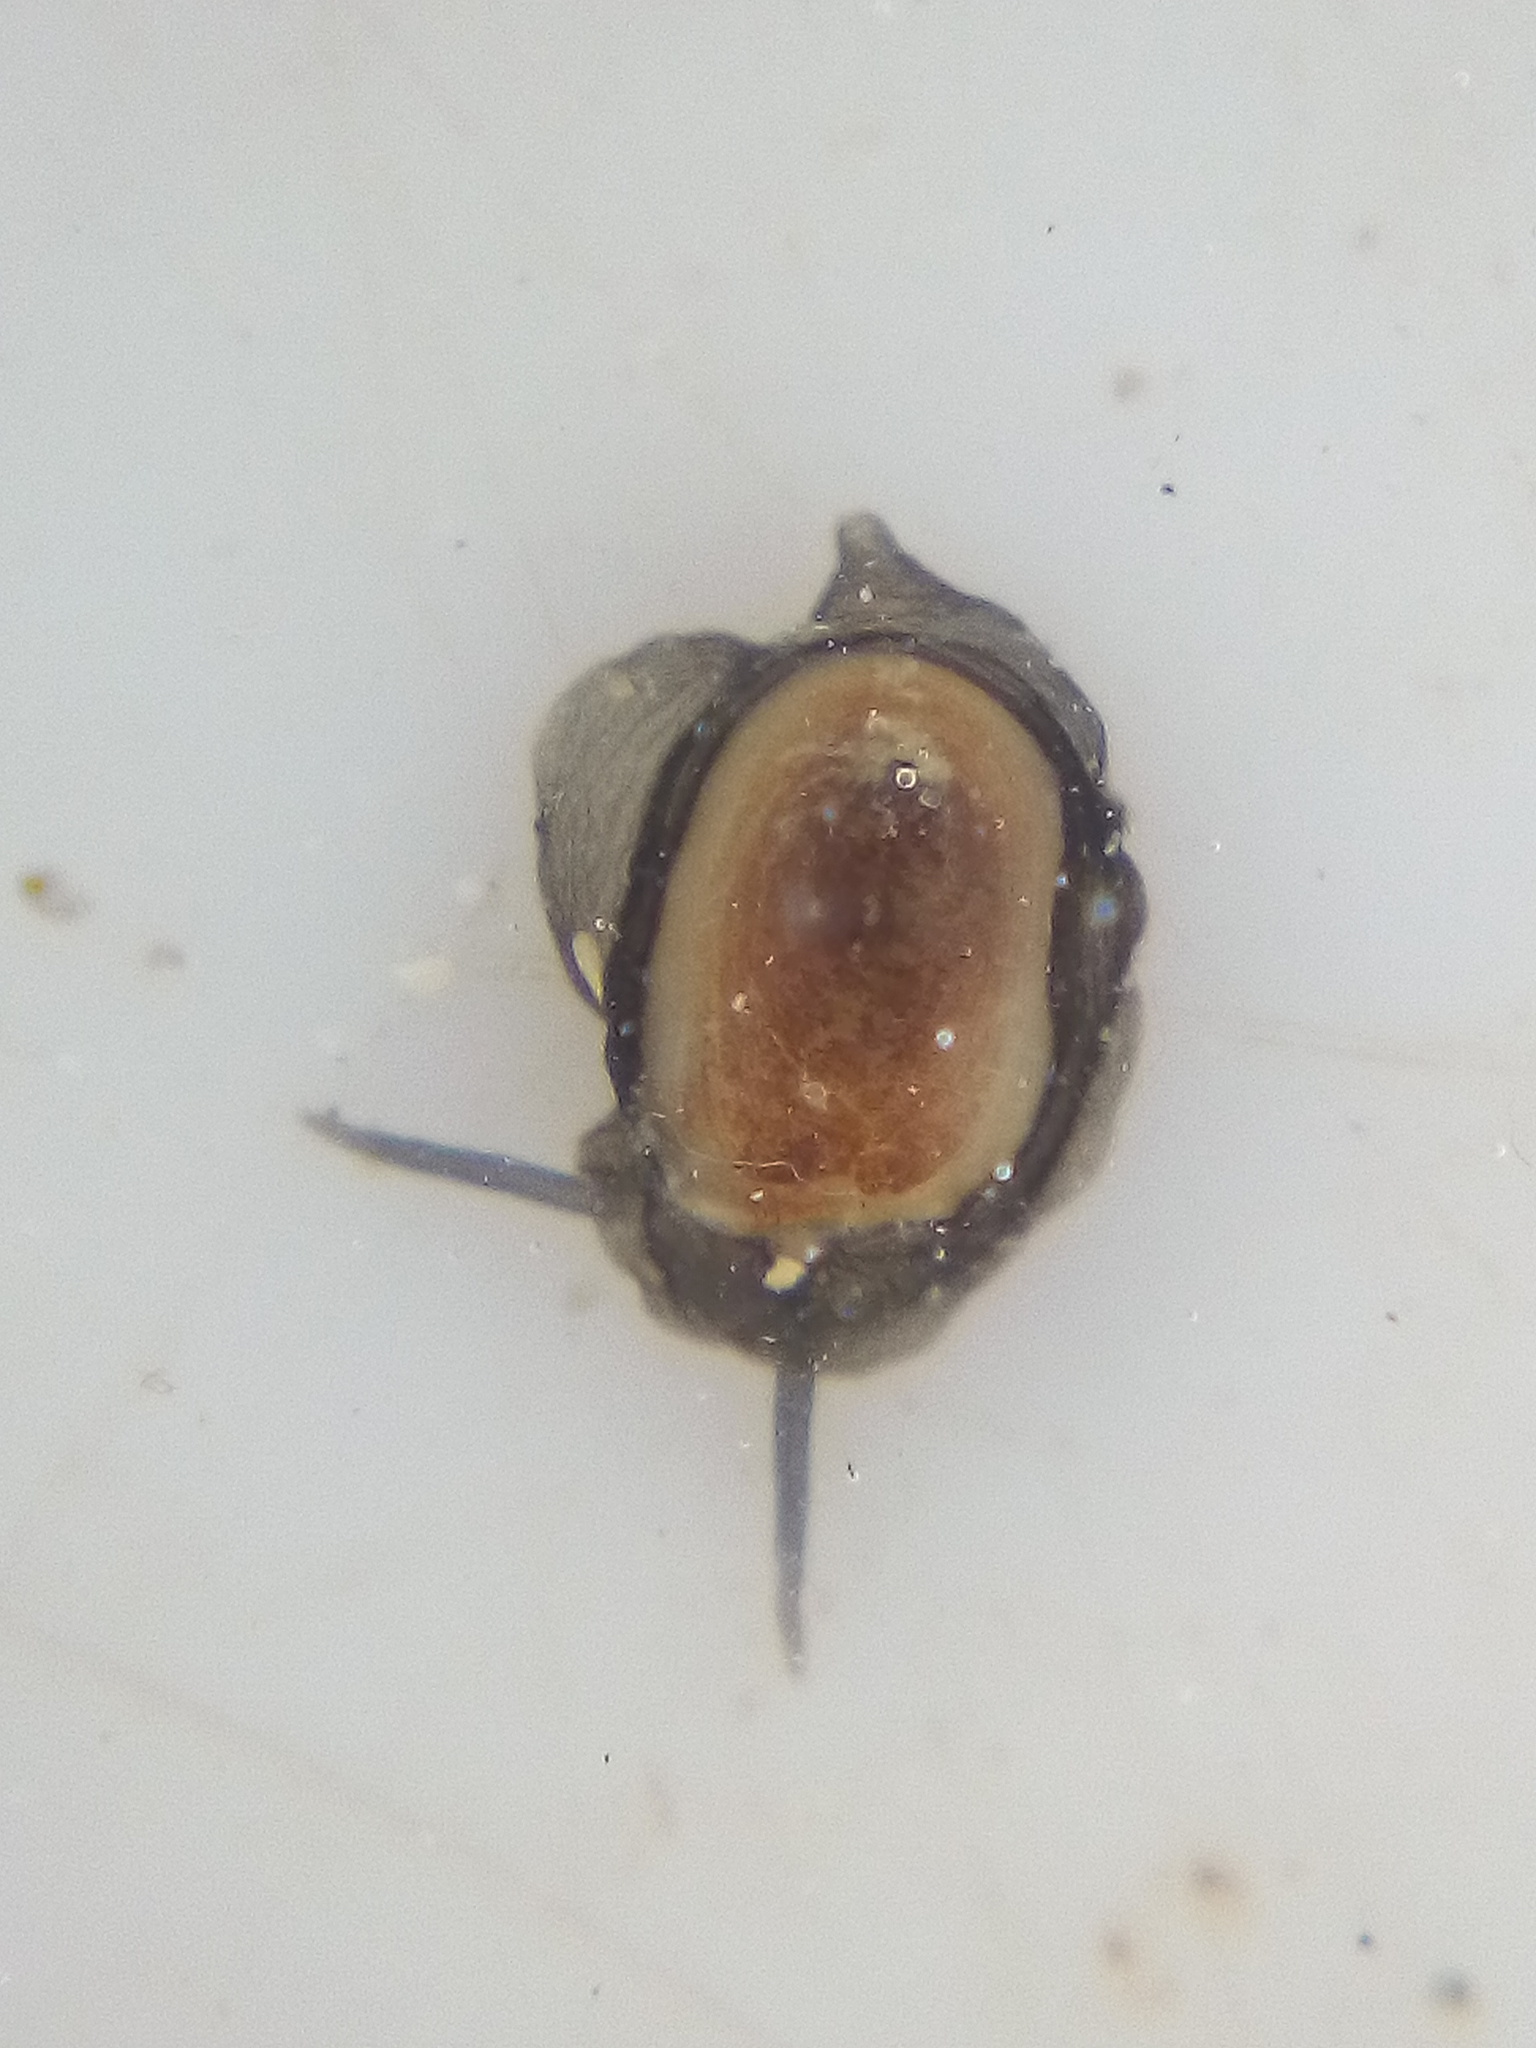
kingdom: Animalia
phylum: Mollusca
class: Gastropoda
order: Lepetellida
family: Fissurellidae
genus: Scutus
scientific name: Scutus breviculus
